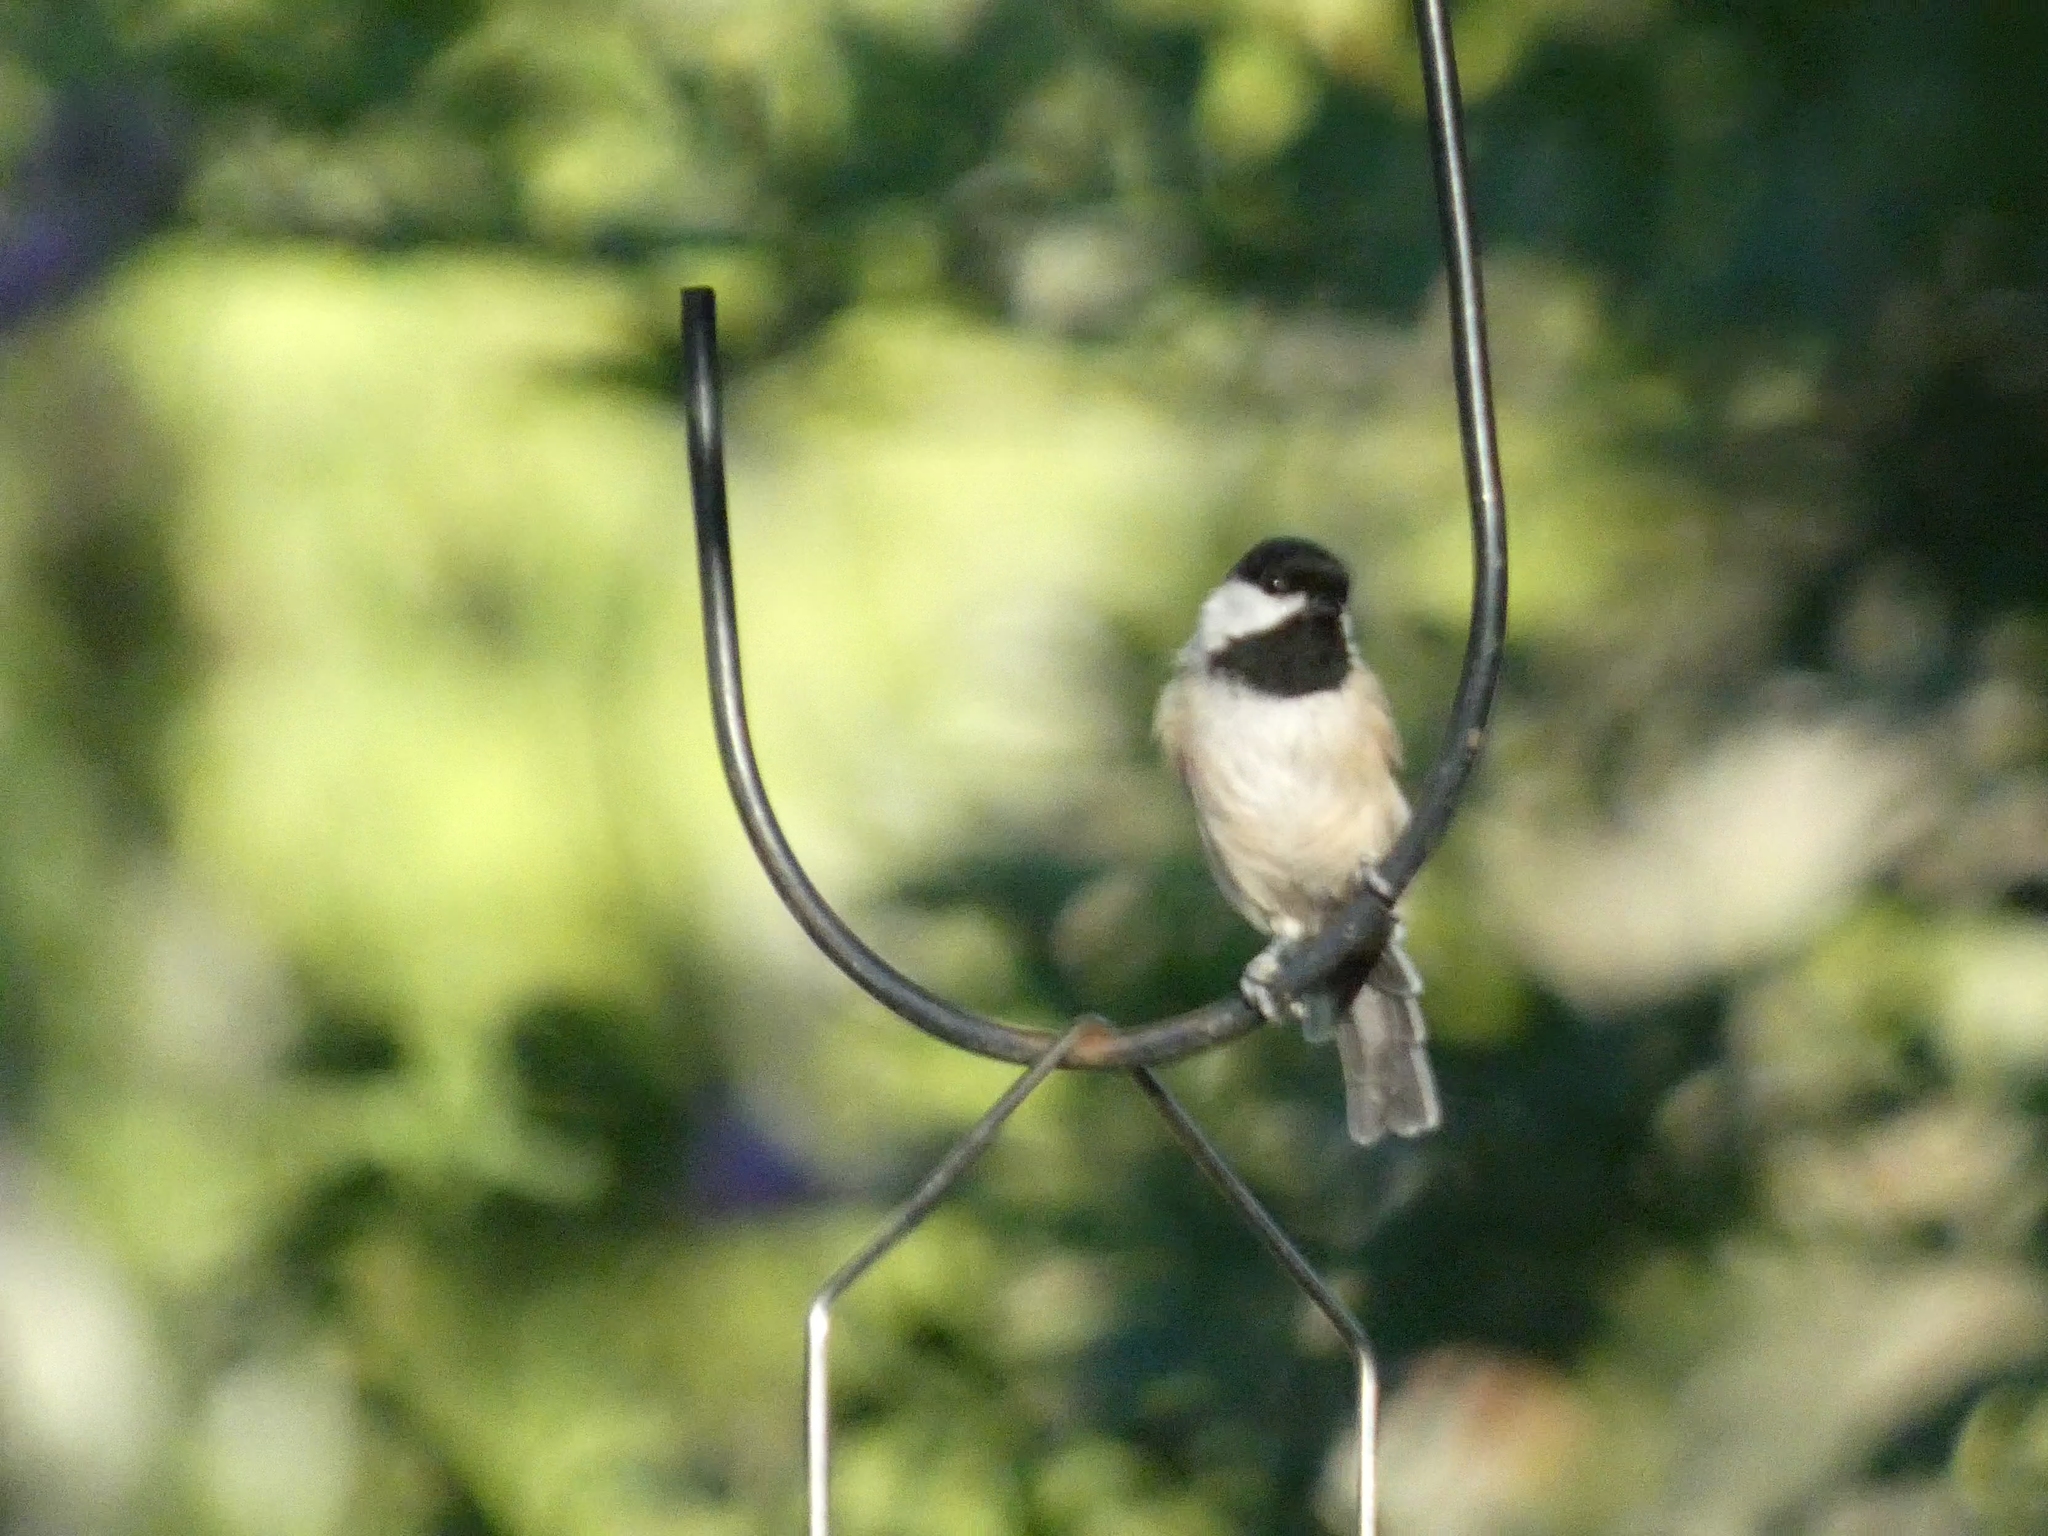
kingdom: Animalia
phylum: Chordata
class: Aves
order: Passeriformes
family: Paridae
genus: Poecile
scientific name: Poecile carolinensis
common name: Carolina chickadee
